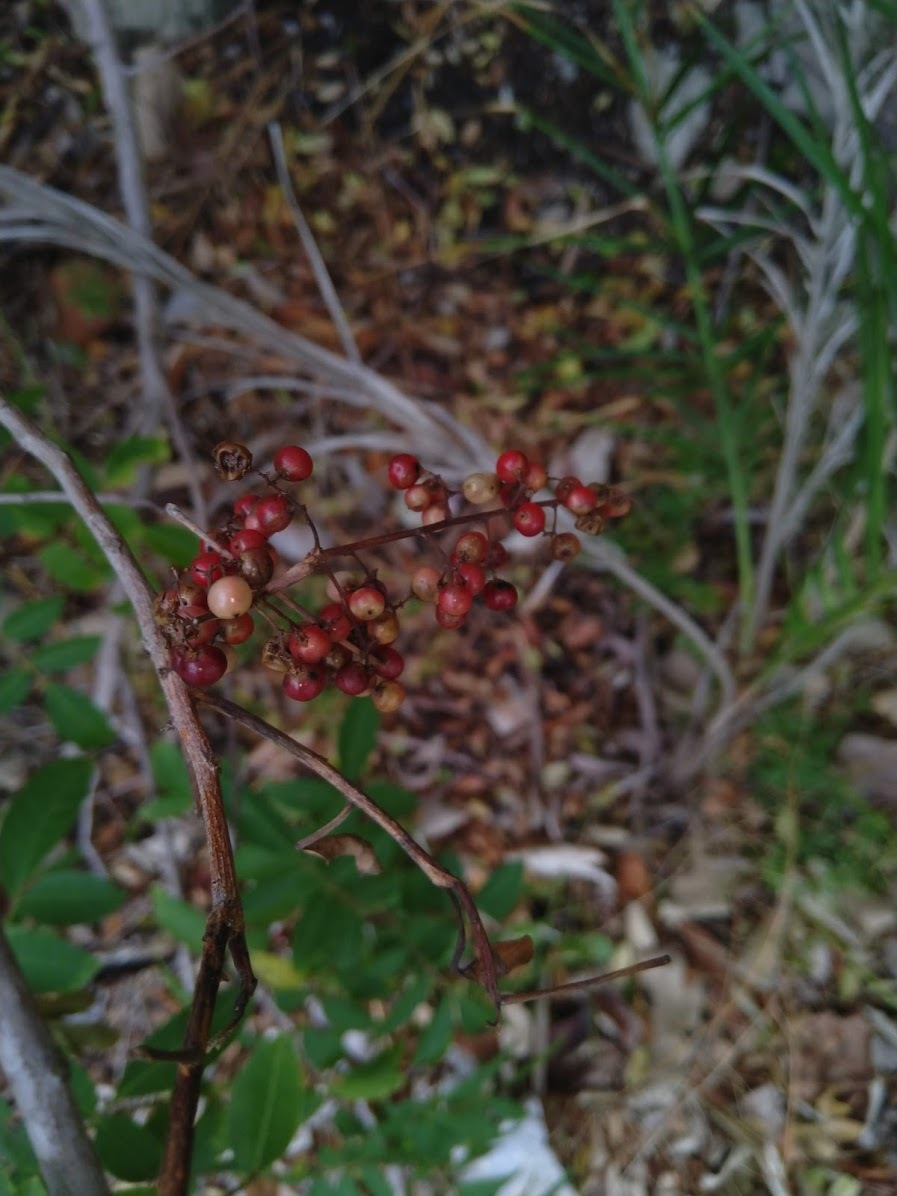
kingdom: Plantae
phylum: Tracheophyta
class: Magnoliopsida
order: Sapindales
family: Anacardiaceae
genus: Schinus
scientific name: Schinus terebinthifolia
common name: Brazilian peppertree
